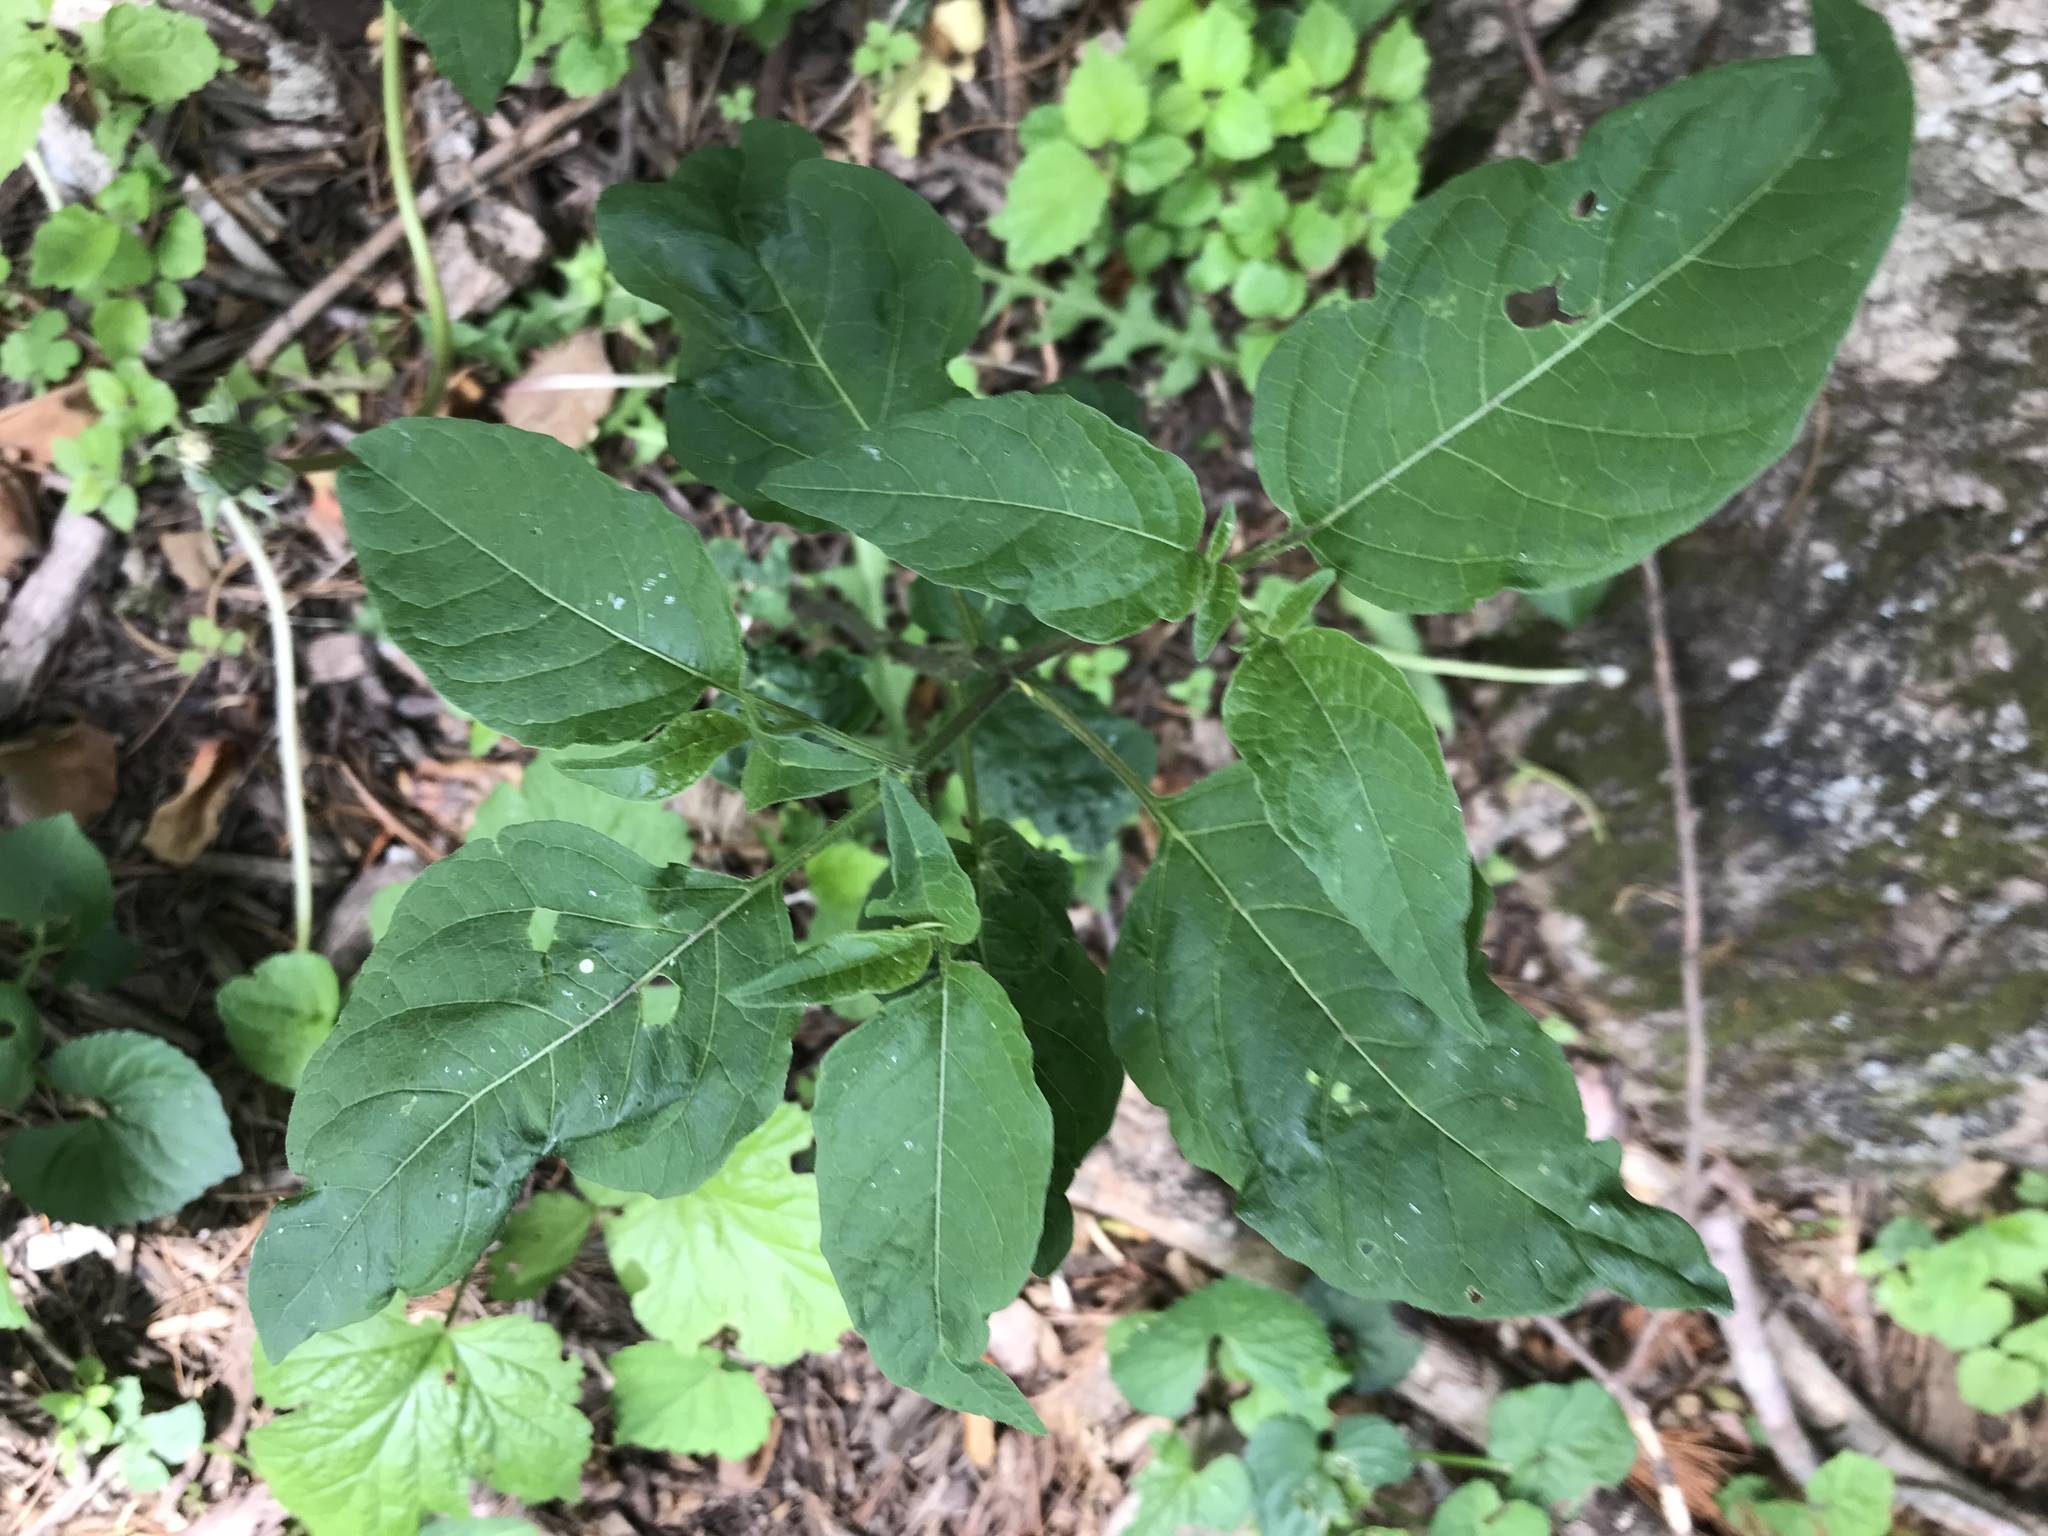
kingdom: Plantae
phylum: Tracheophyta
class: Magnoliopsida
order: Solanales
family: Solanaceae
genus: Physalis
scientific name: Physalis longifolia
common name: Common ground-cherry
